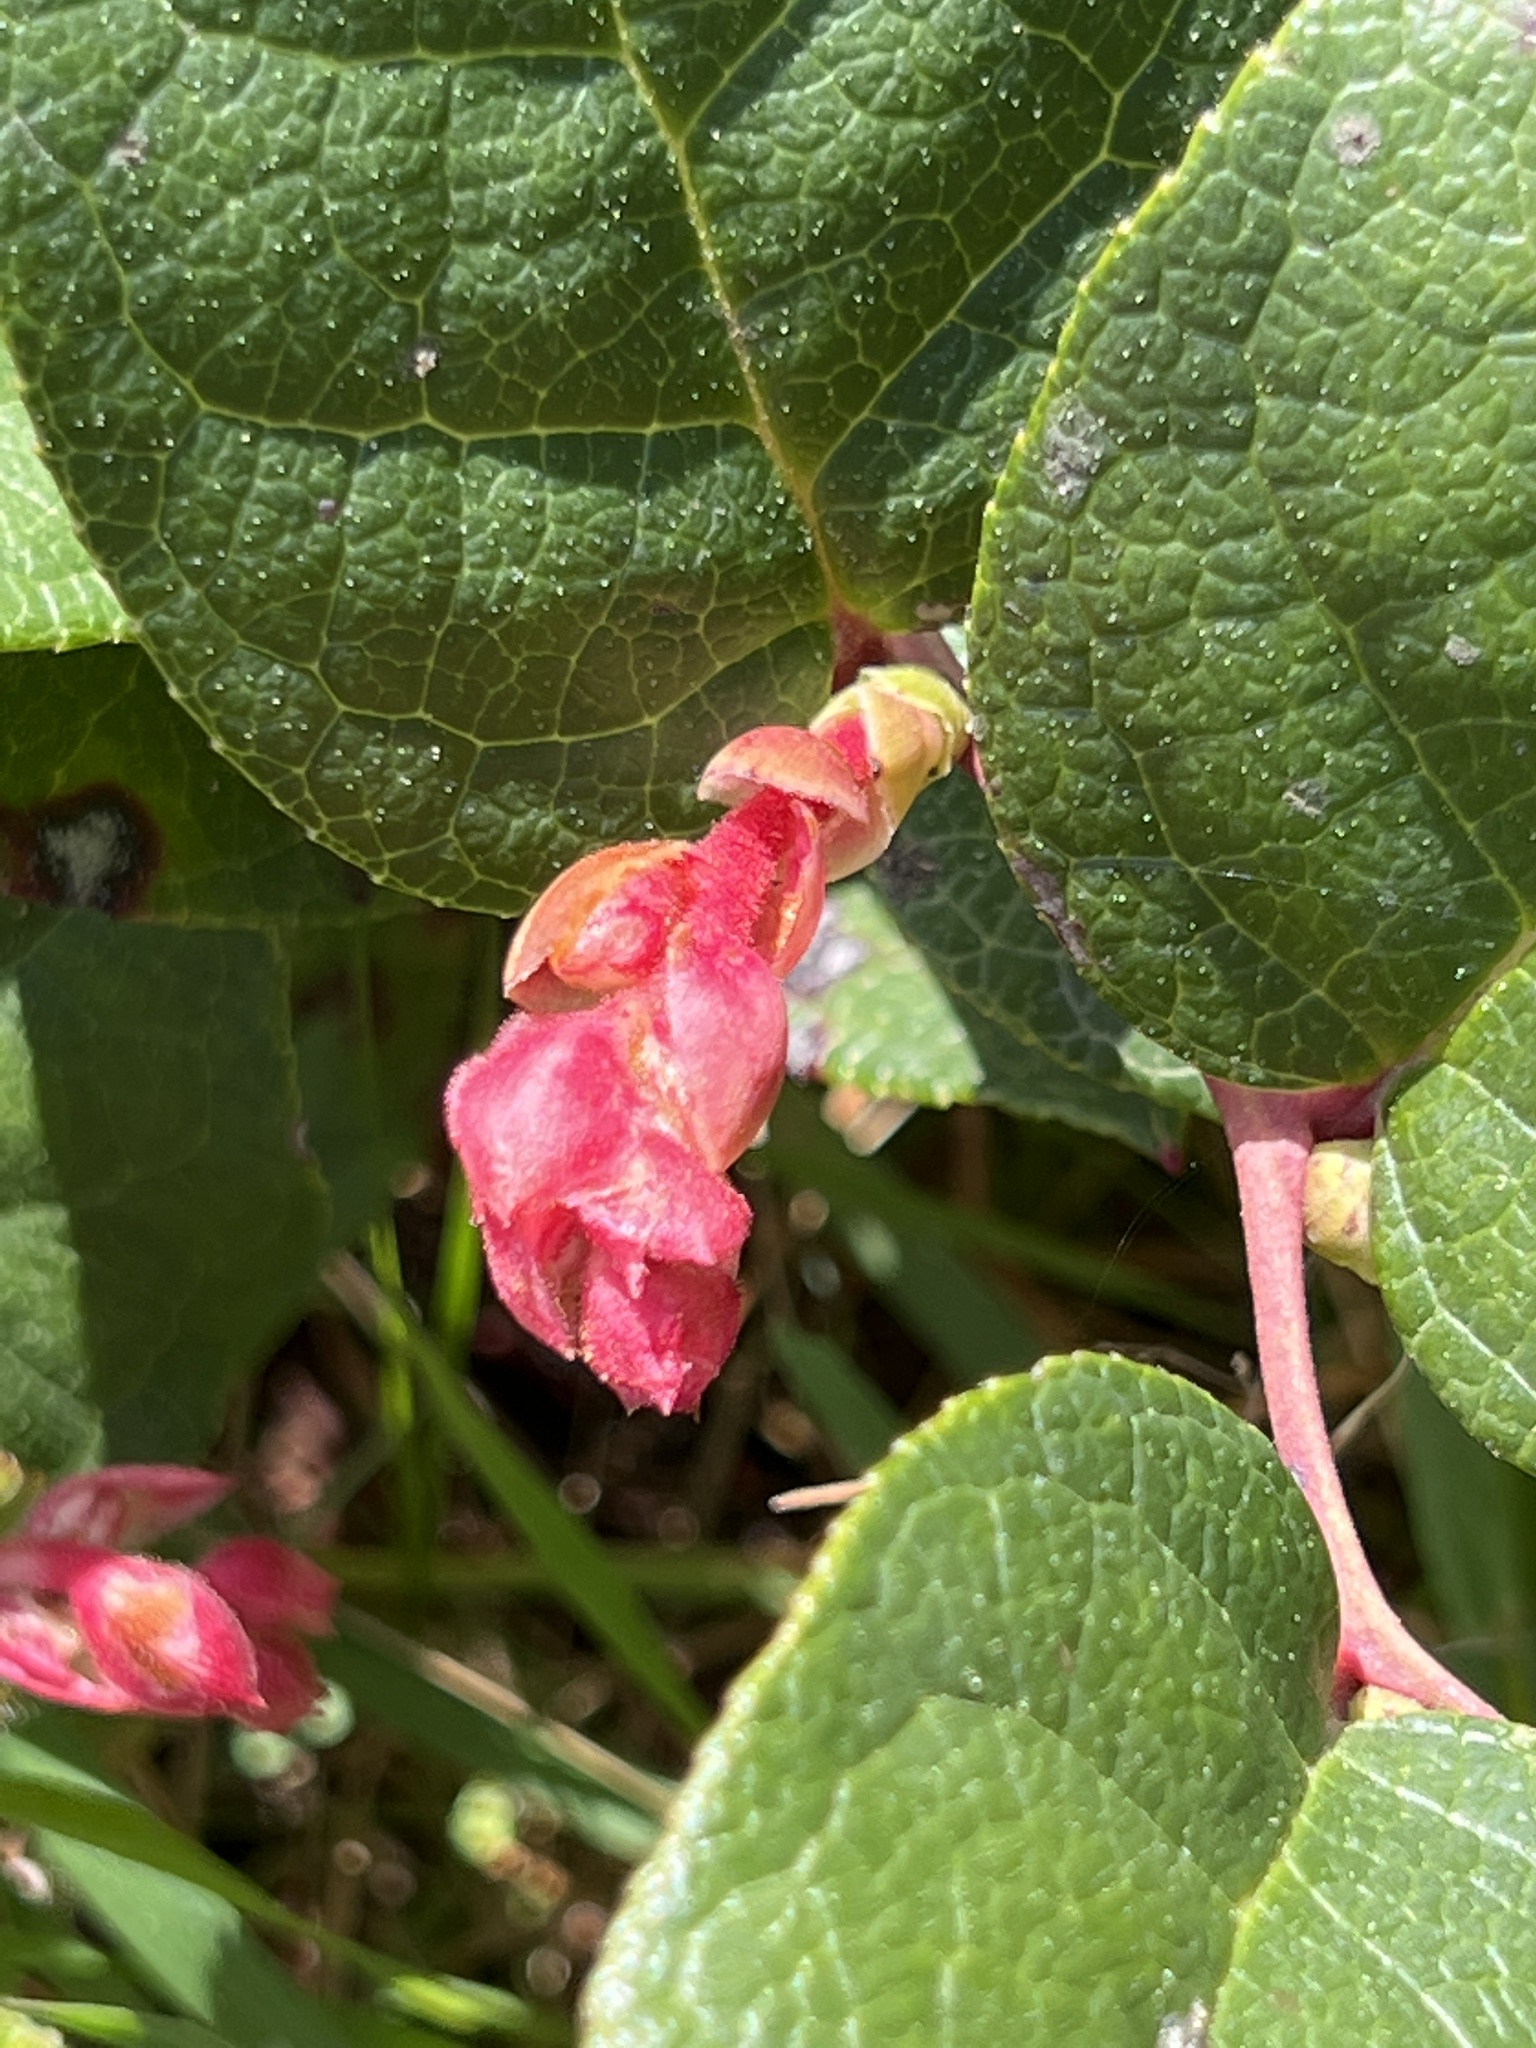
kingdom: Plantae
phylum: Tracheophyta
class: Magnoliopsida
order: Ericales
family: Ericaceae
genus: Gaultheria
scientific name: Gaultheria shallon
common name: Shallon
